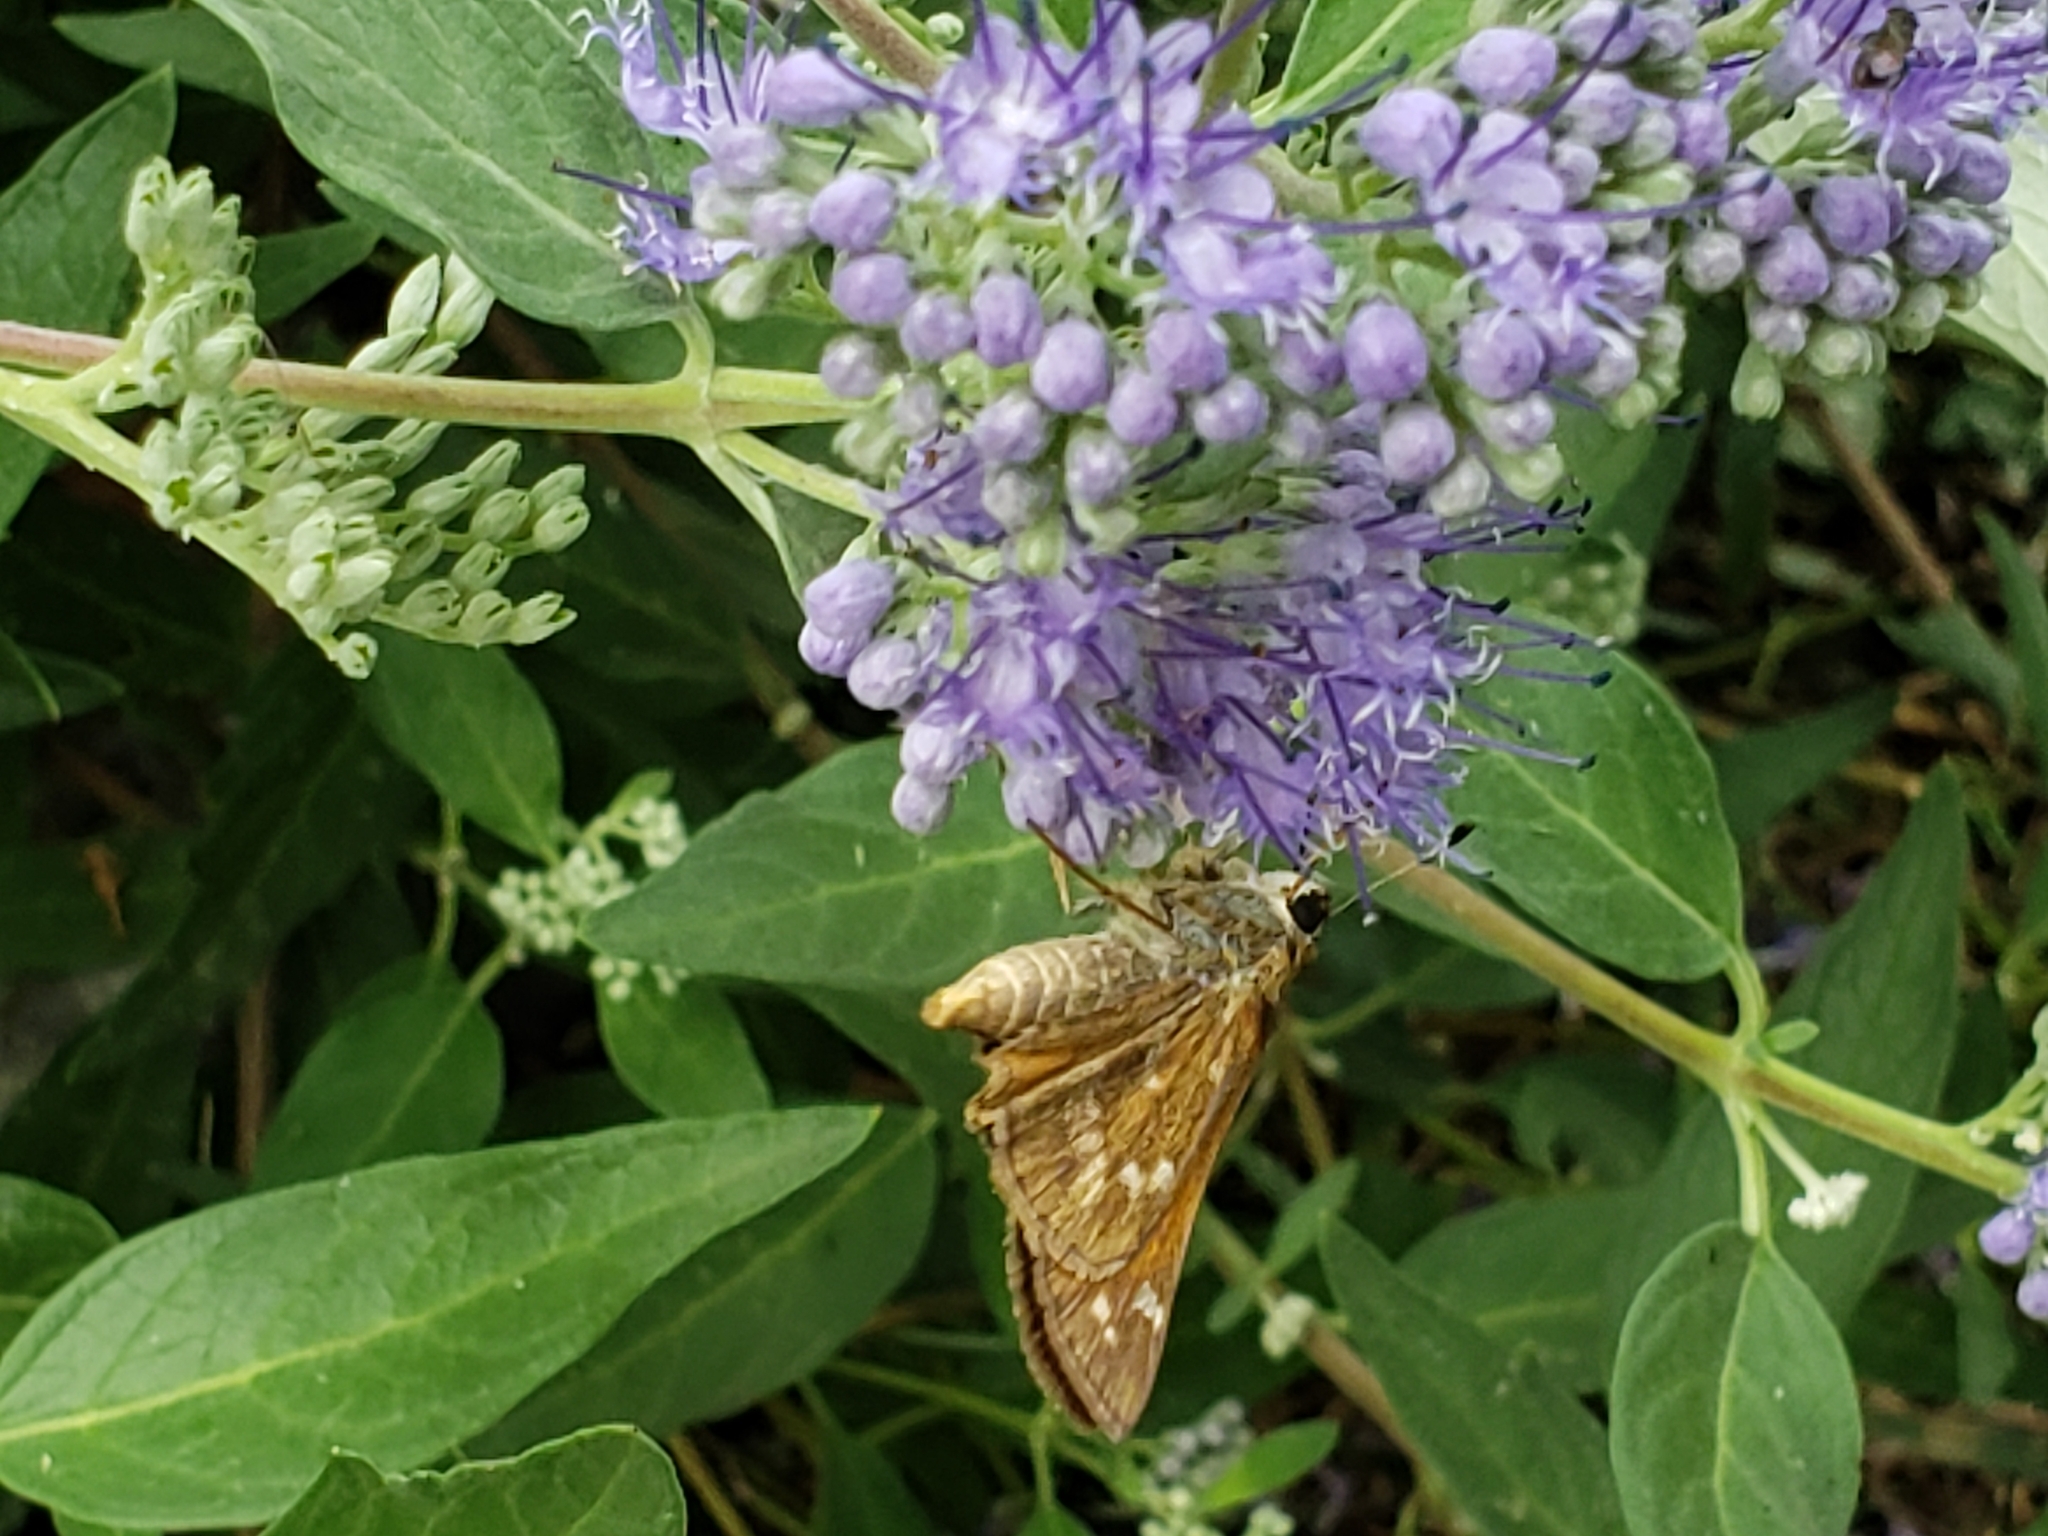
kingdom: Animalia
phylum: Arthropoda
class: Insecta
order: Lepidoptera
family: Hesperiidae
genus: Atalopedes
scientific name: Atalopedes
